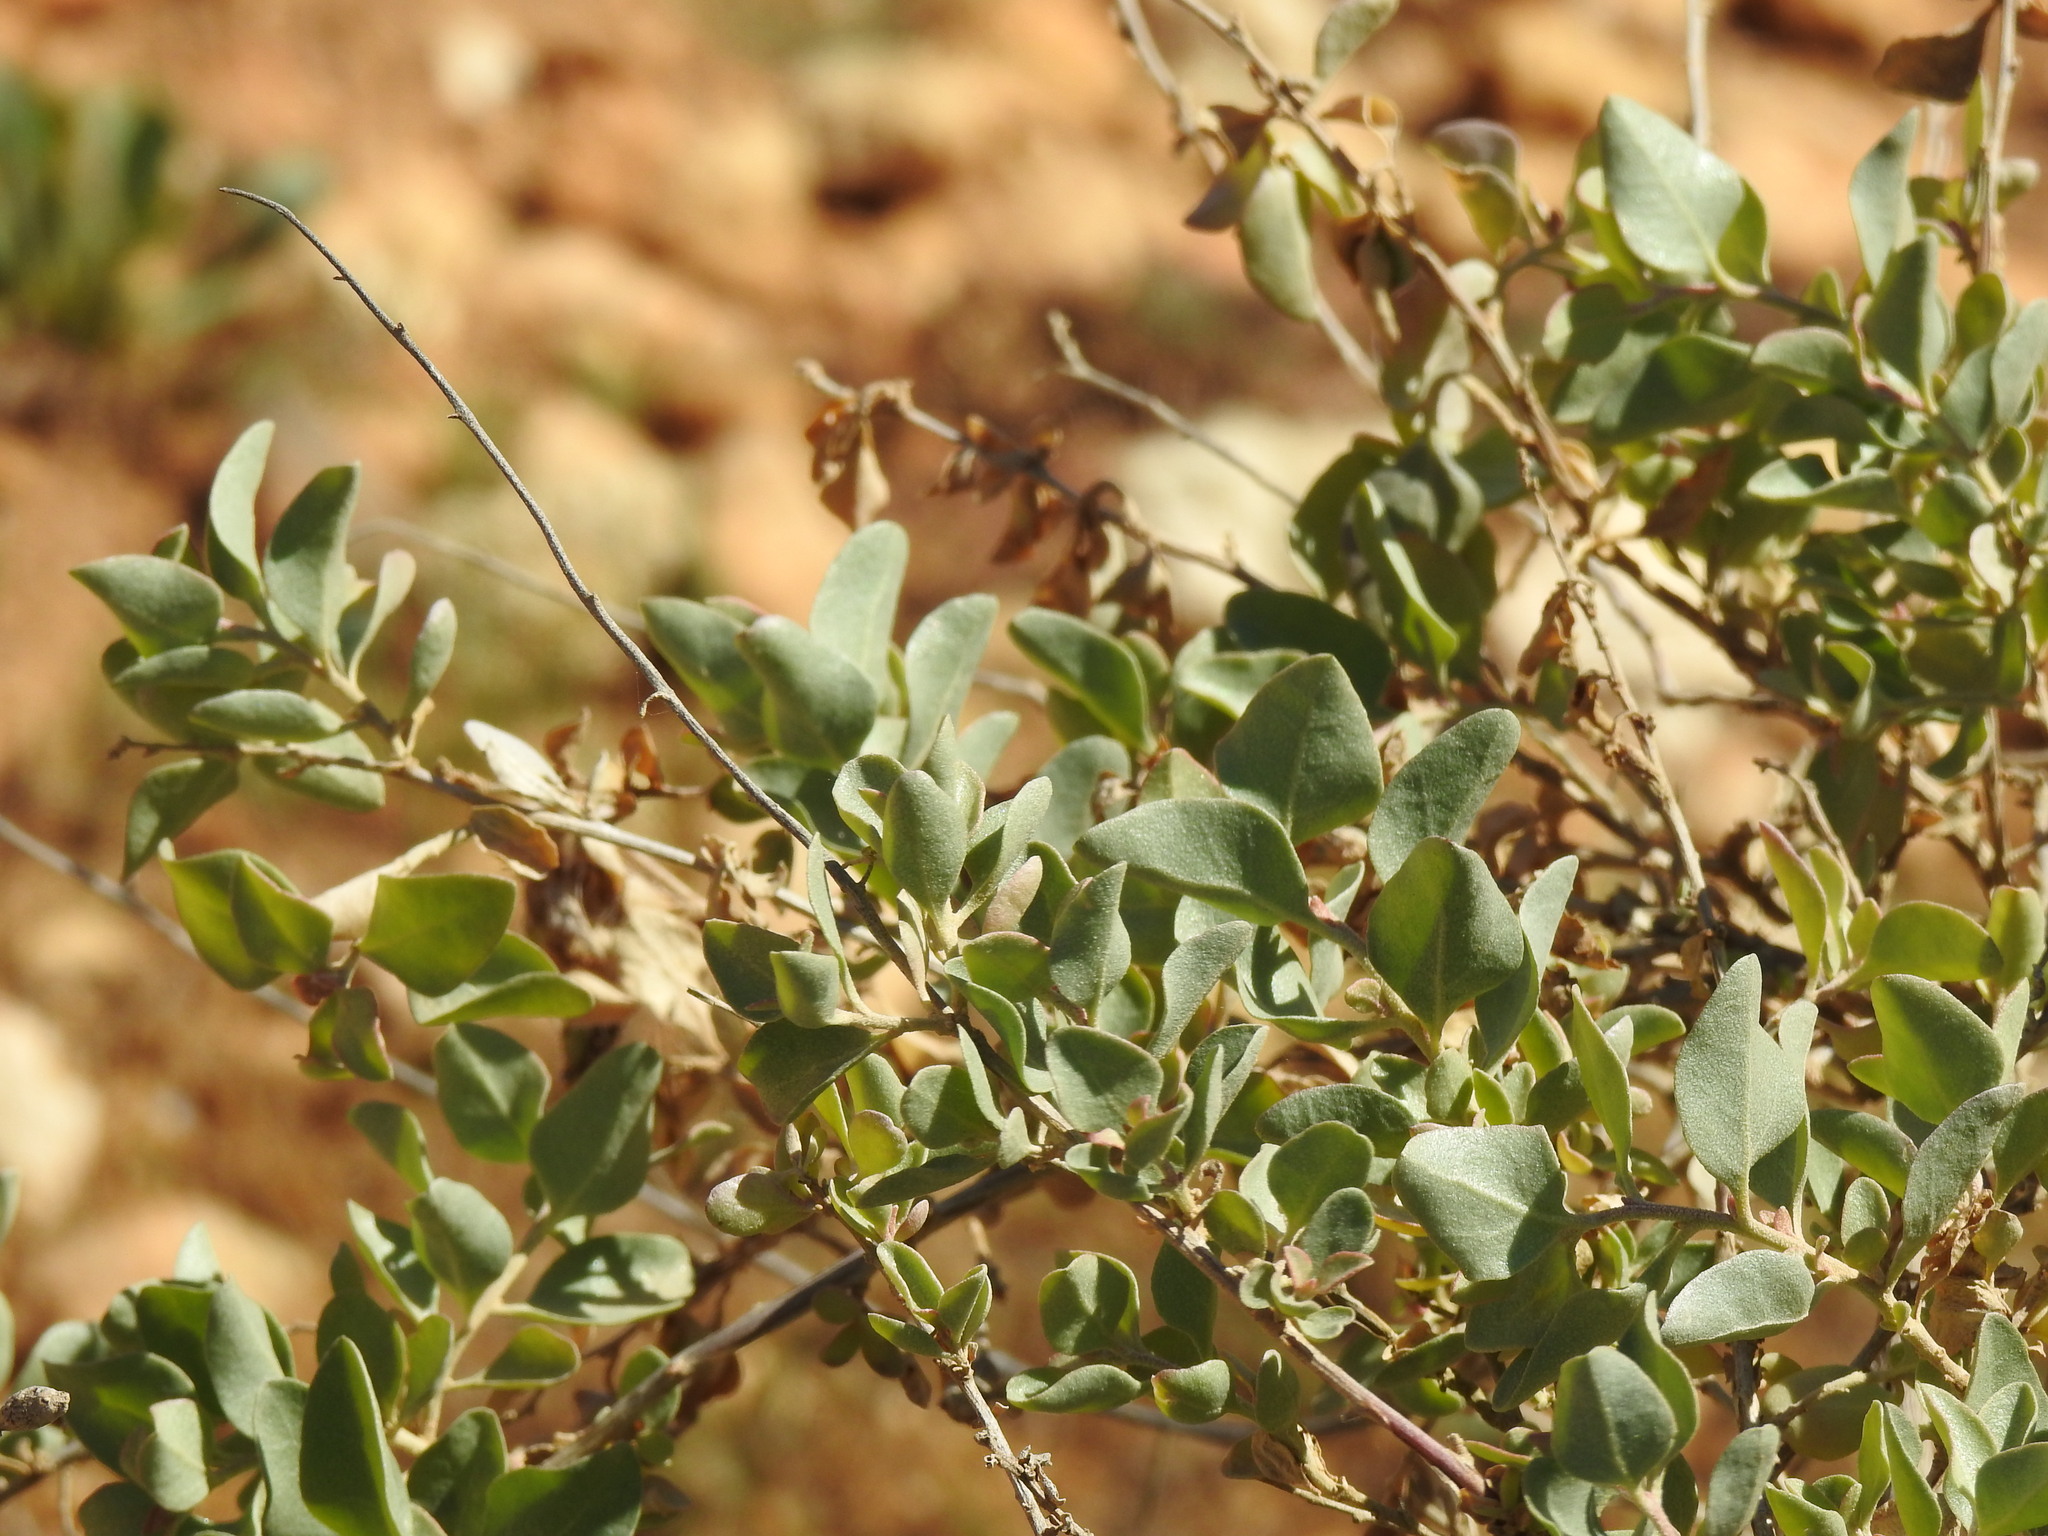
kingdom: Plantae
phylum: Tracheophyta
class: Magnoliopsida
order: Caryophyllales
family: Amaranthaceae
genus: Atriplex
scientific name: Atriplex halimus
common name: Shrubby orache
